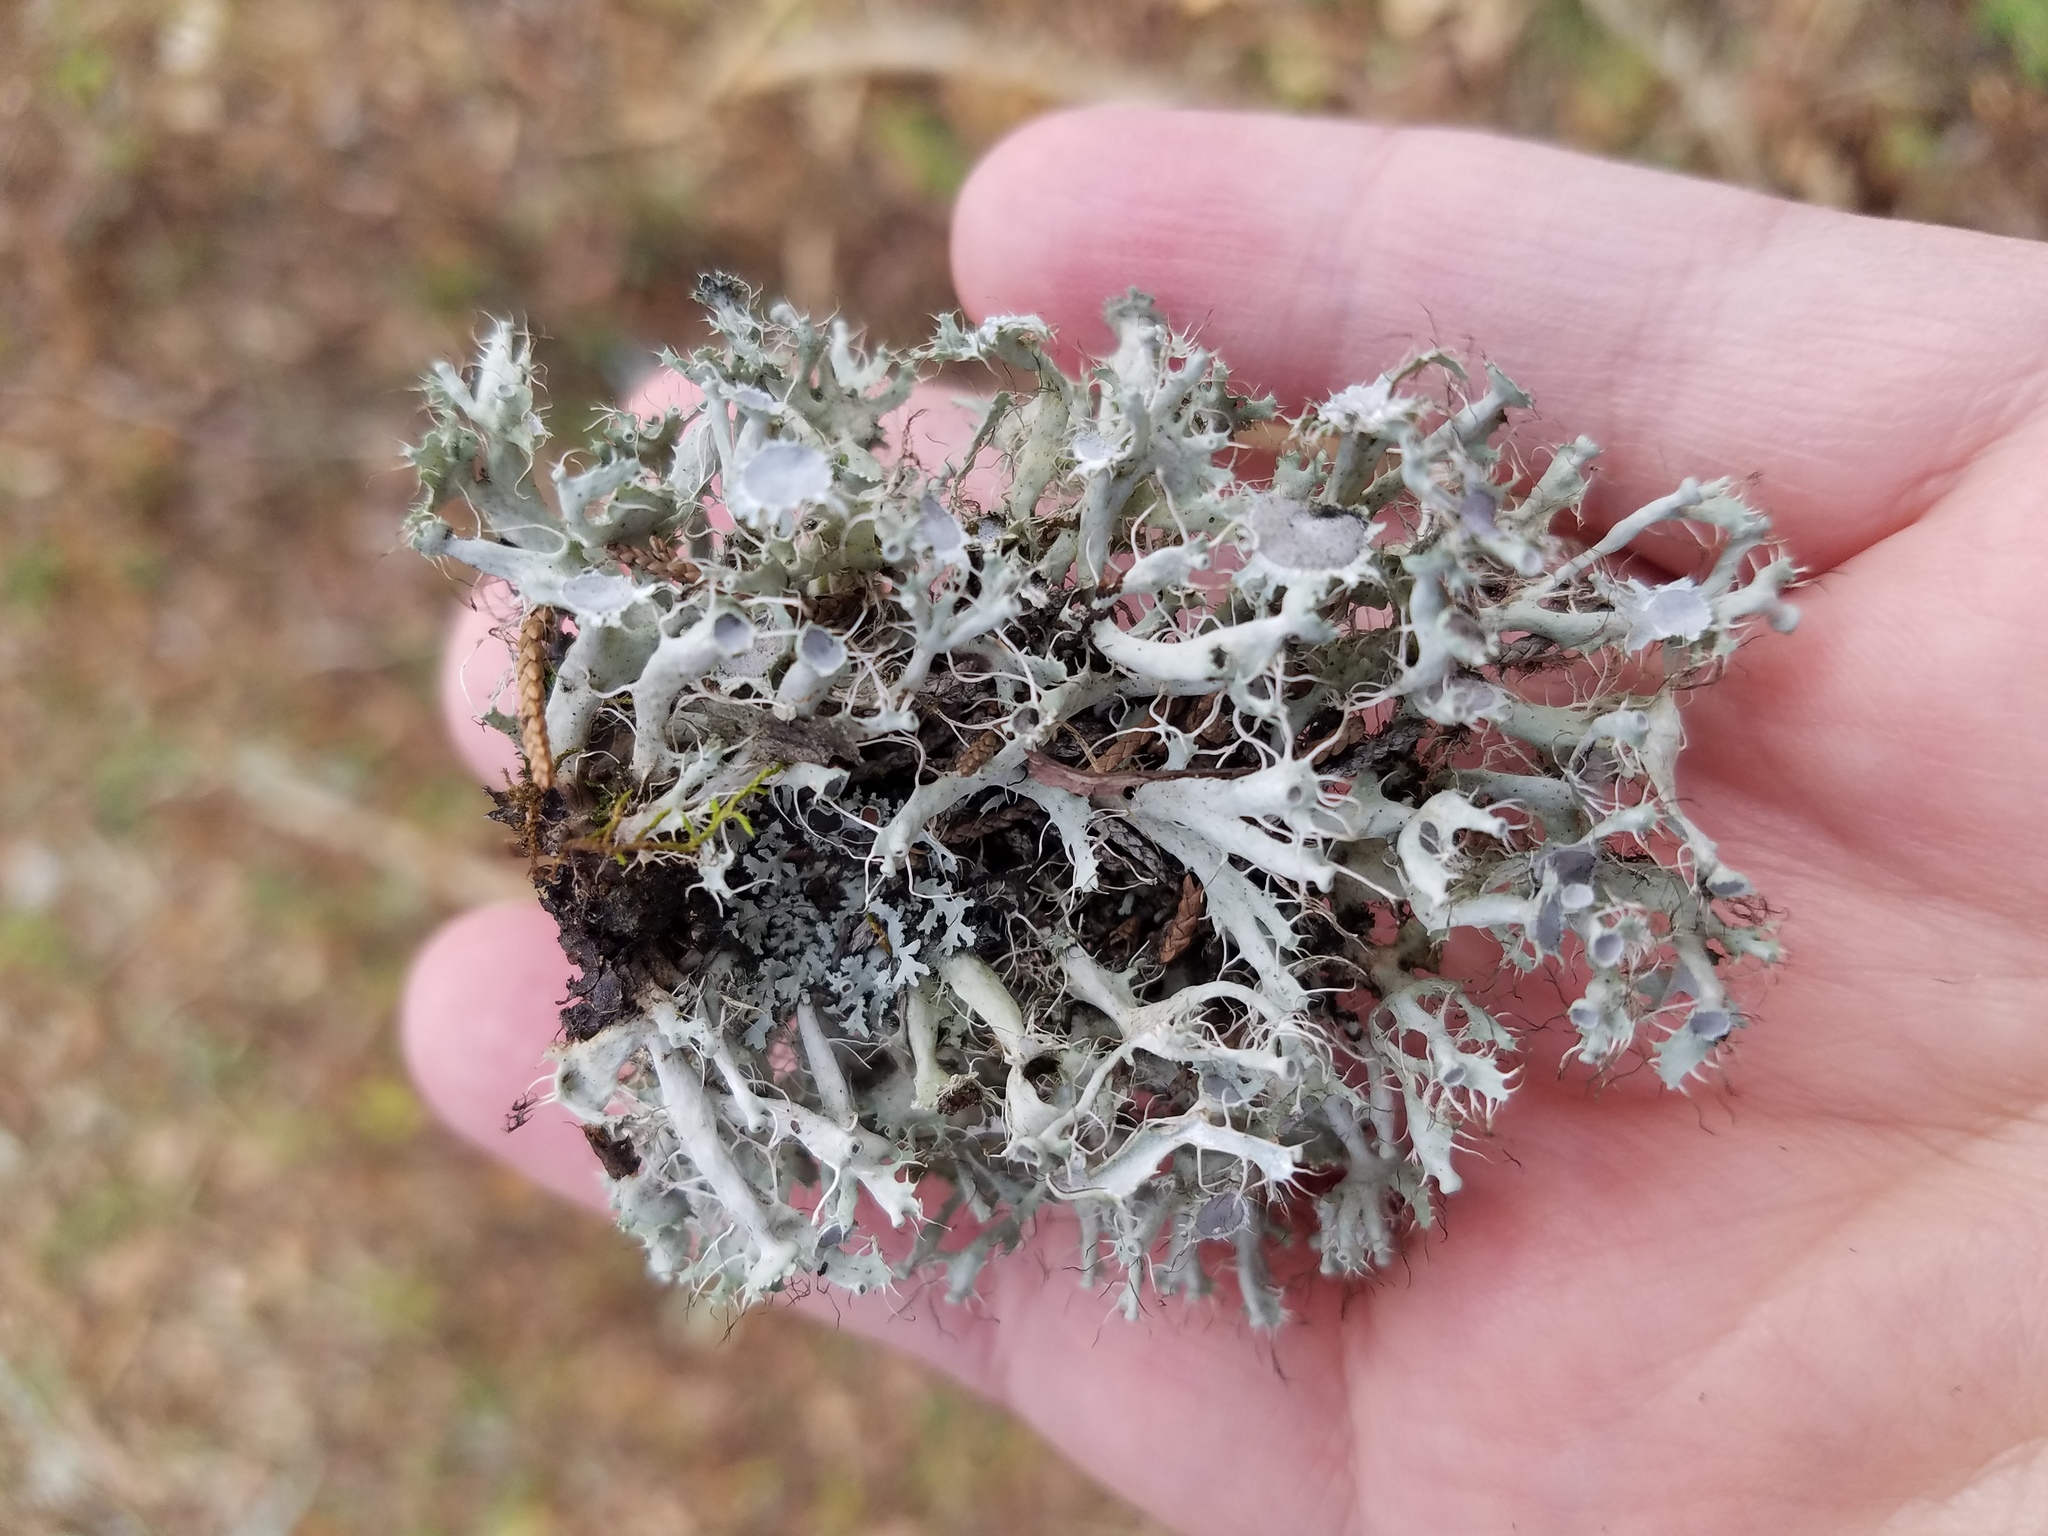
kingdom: Fungi
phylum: Ascomycota
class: Lecanoromycetes
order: Caliciales
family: Physciaceae
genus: Heterodermia
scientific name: Heterodermia echinata
